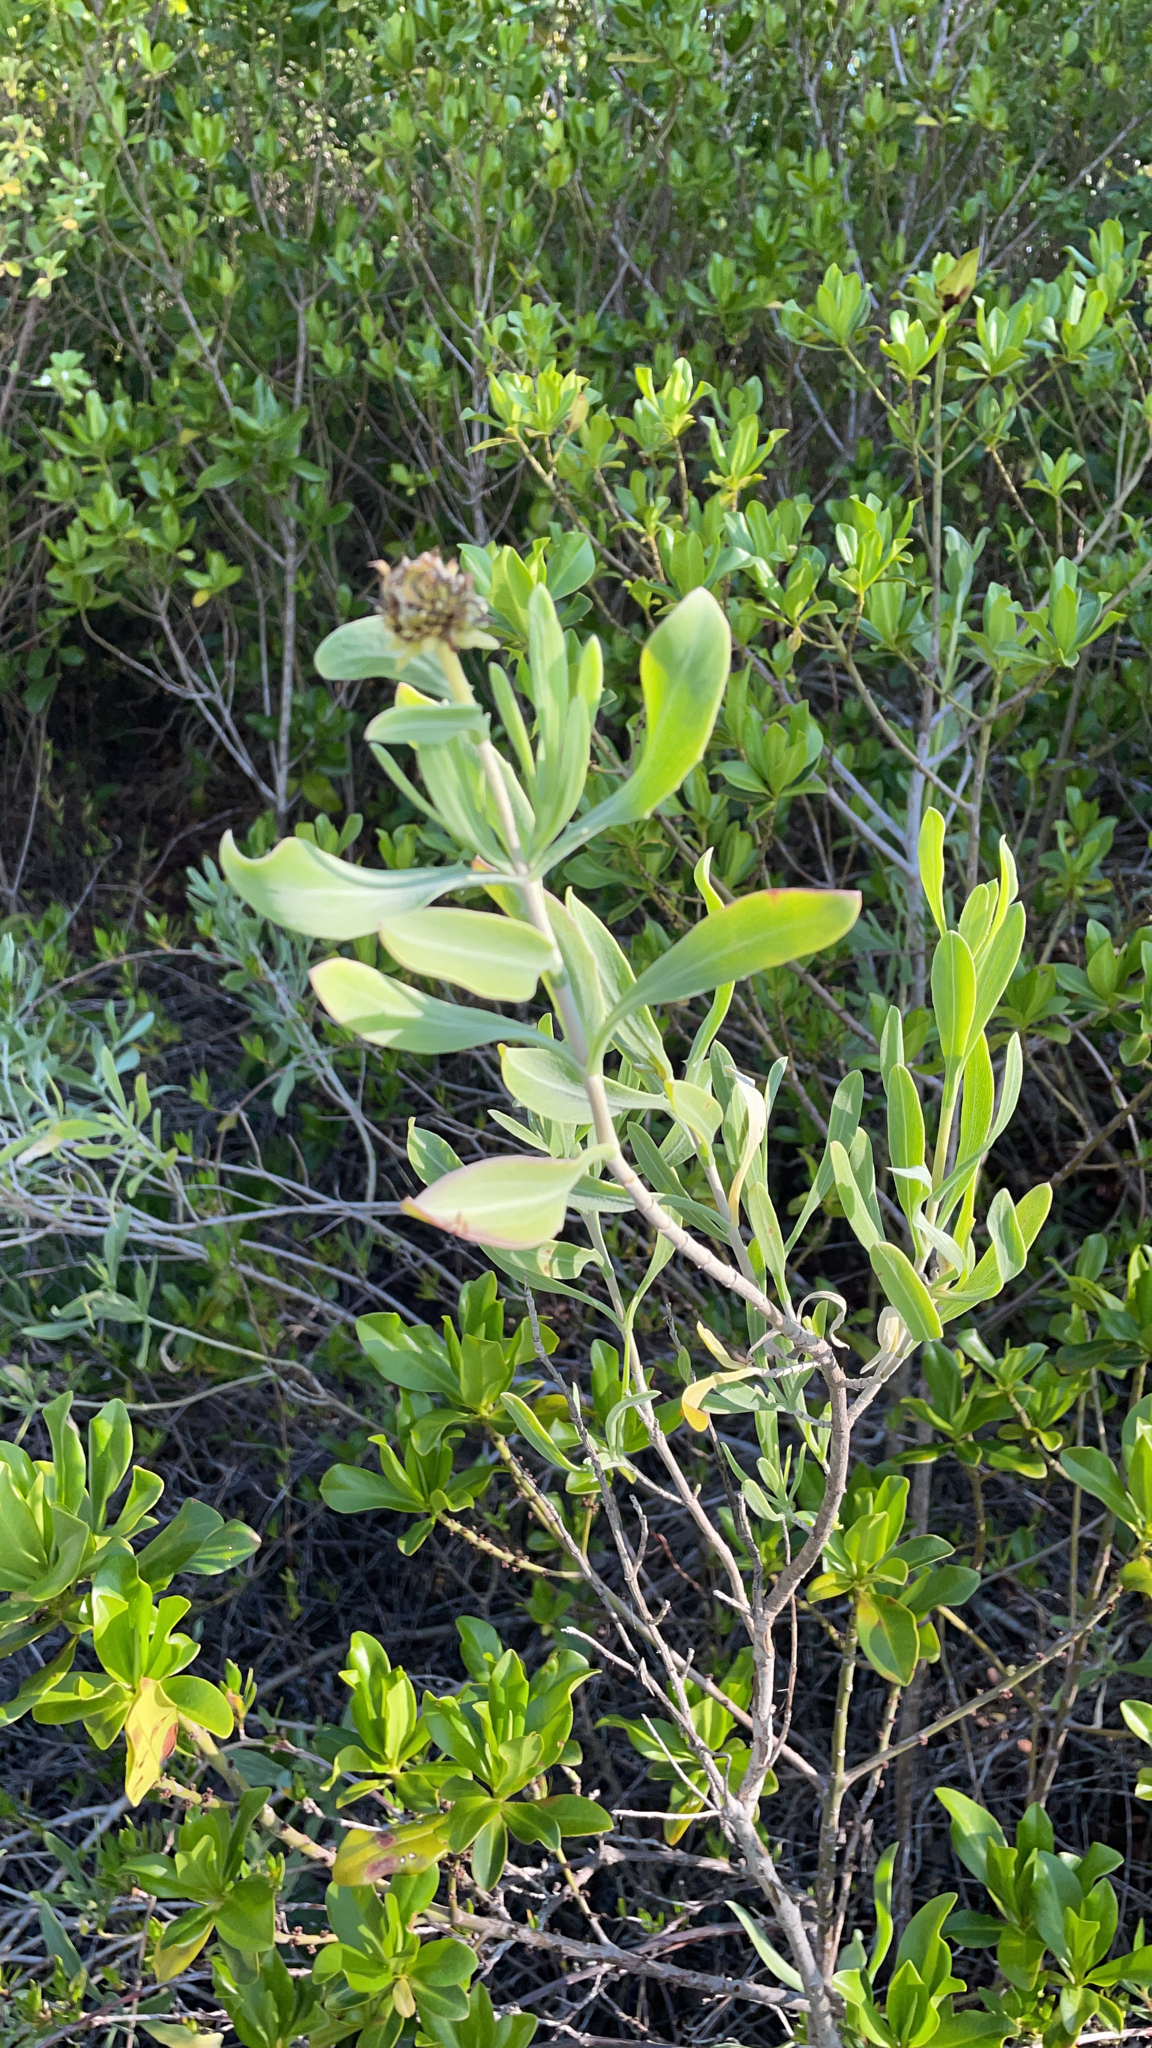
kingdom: Plantae
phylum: Tracheophyta
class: Magnoliopsida
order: Asterales
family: Asteraceae
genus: Borrichia
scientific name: Borrichia frutescens
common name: Sea oxeye
